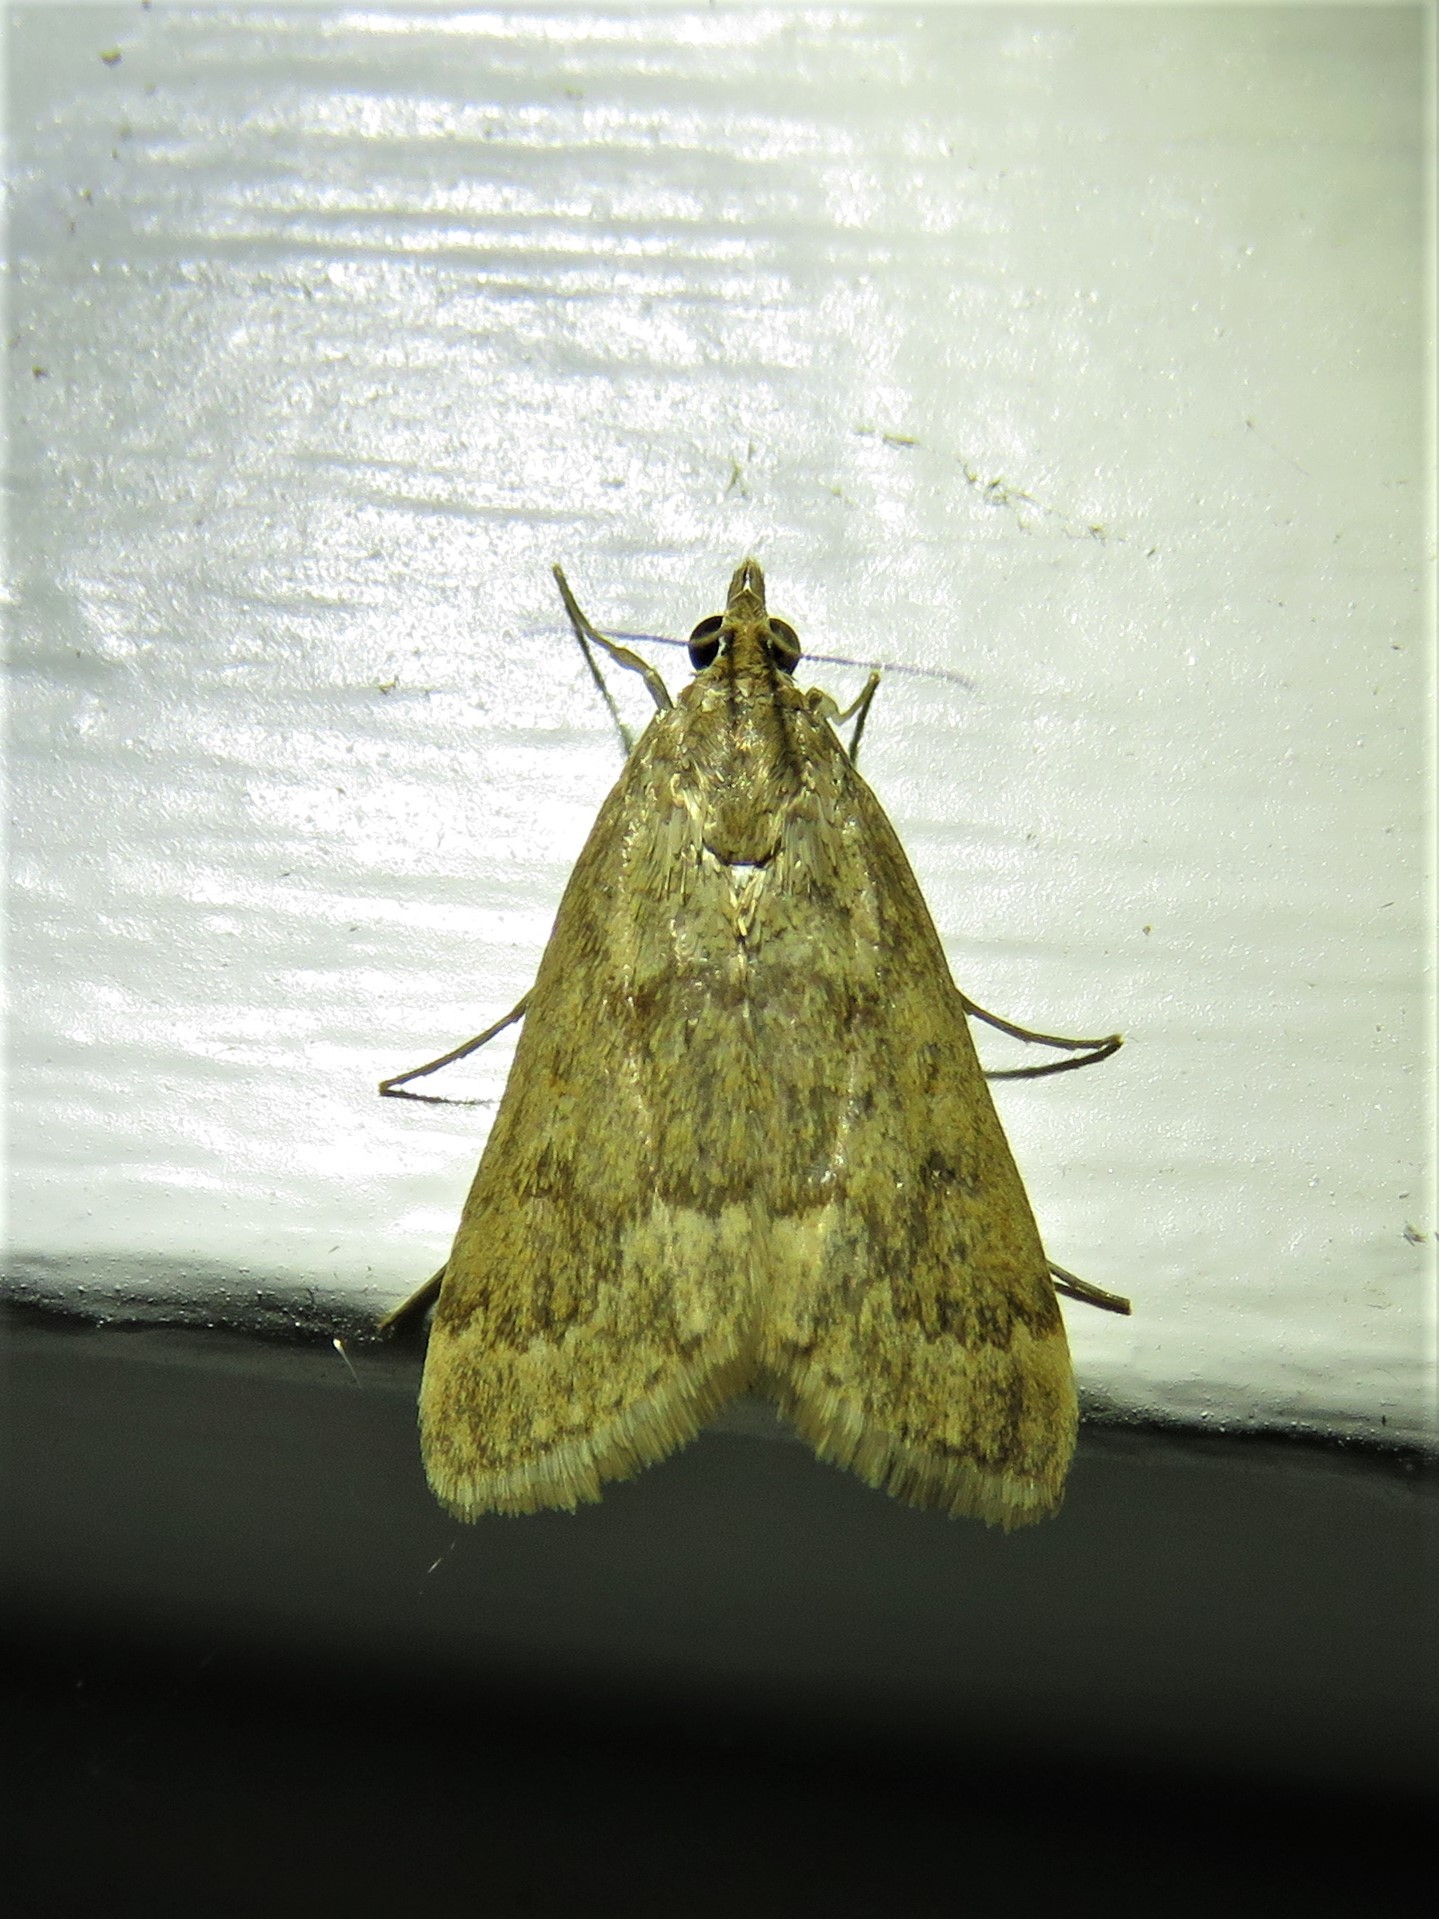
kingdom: Animalia
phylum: Arthropoda
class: Insecta
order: Lepidoptera
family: Crambidae
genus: Achyra
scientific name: Achyra rantalis
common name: Garden webworm
